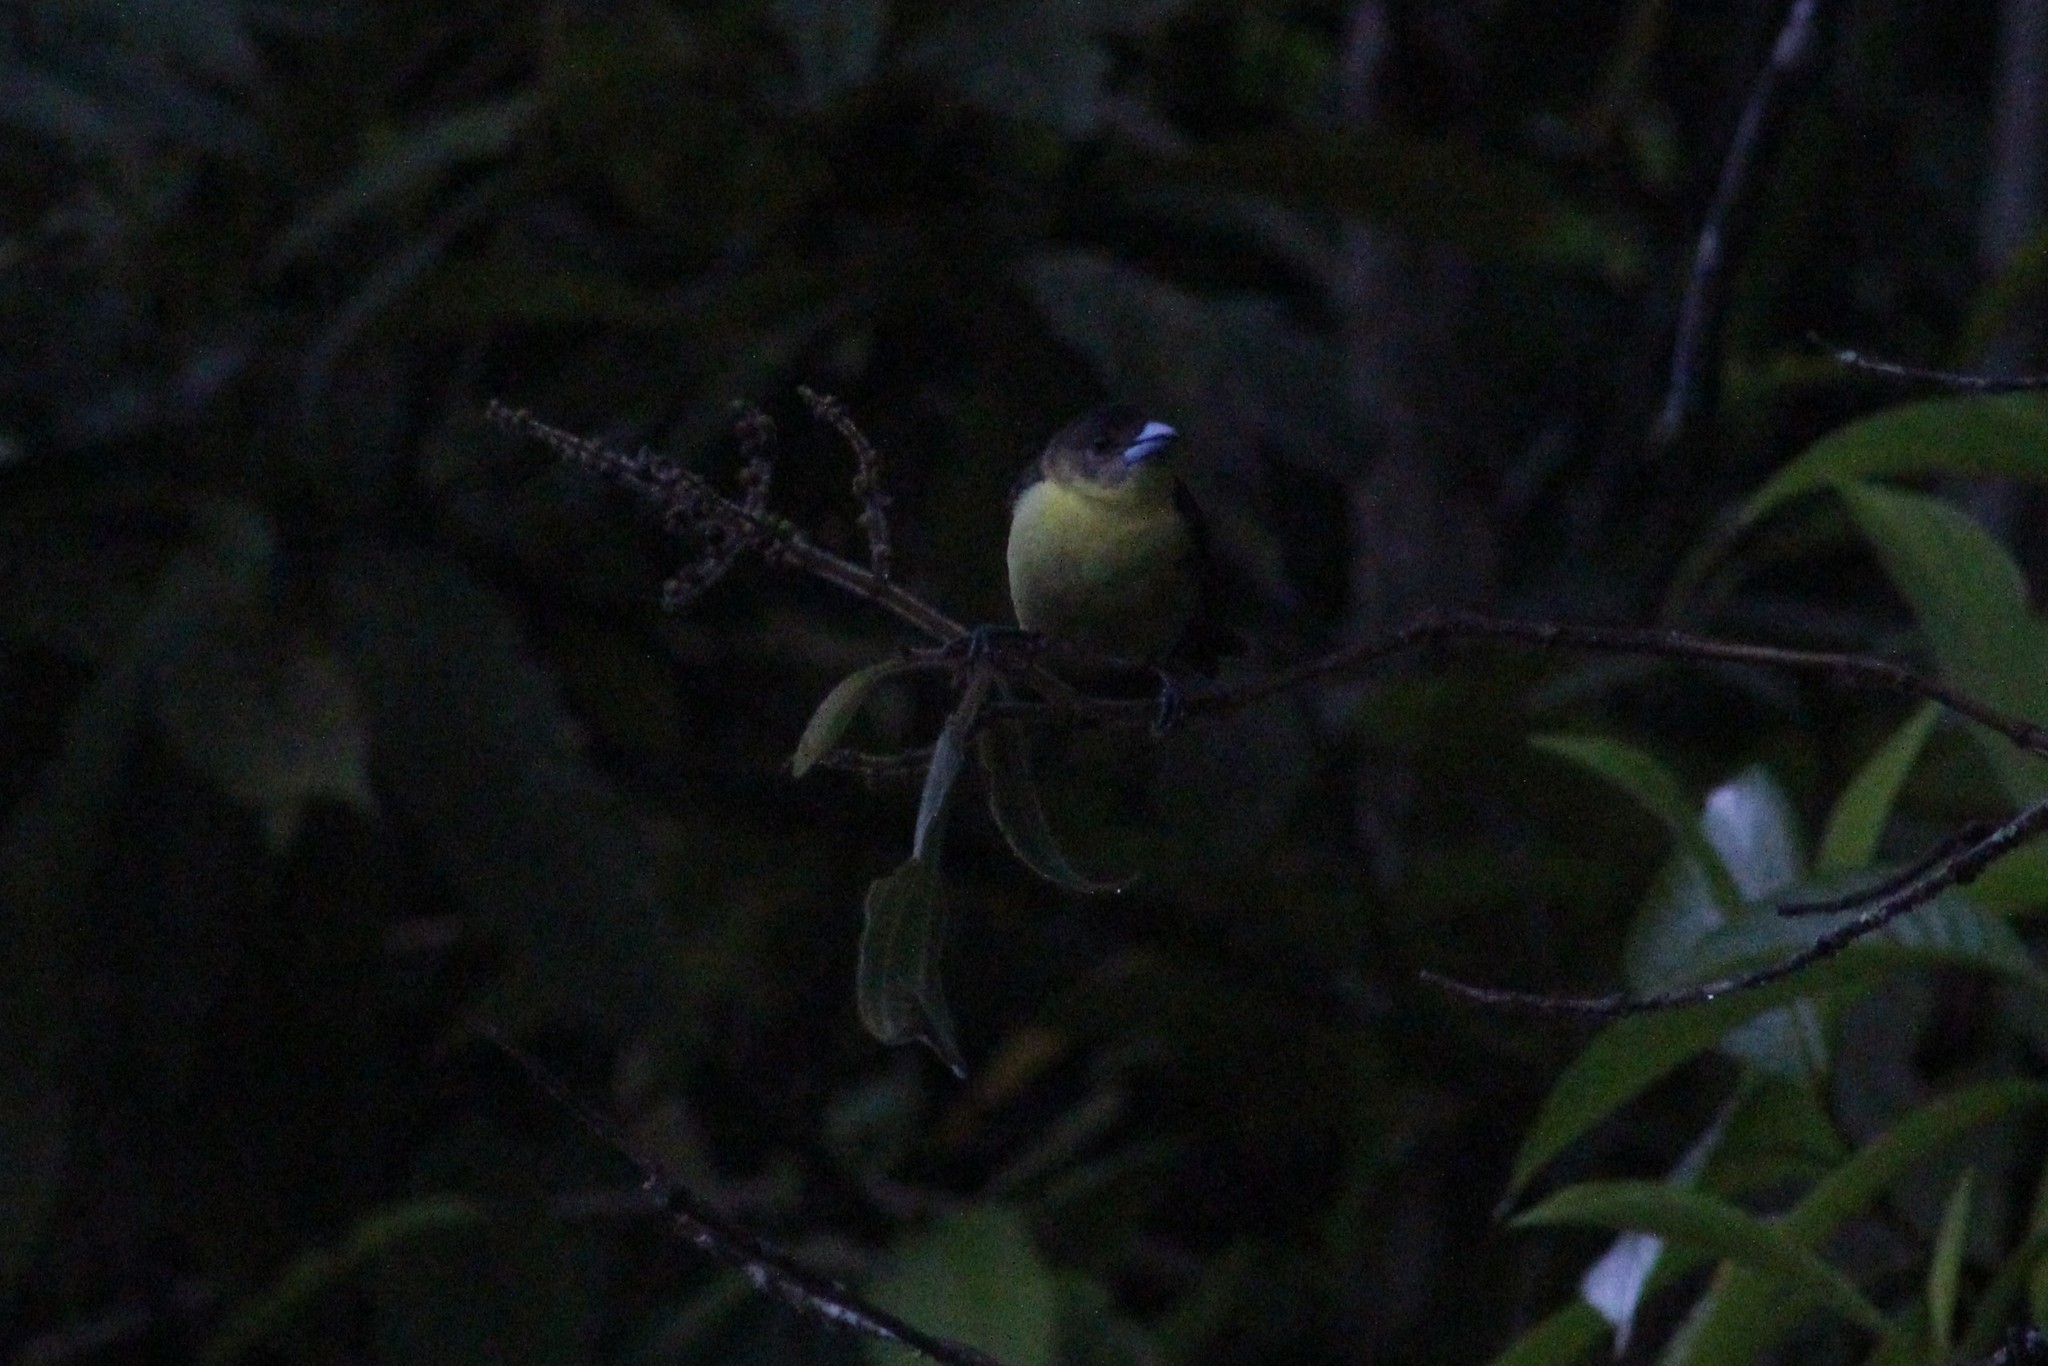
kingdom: Animalia
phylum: Chordata
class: Aves
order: Passeriformes
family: Thraupidae
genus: Ramphocelus
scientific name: Ramphocelus icteronotus
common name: Lemon-rumped tanager
